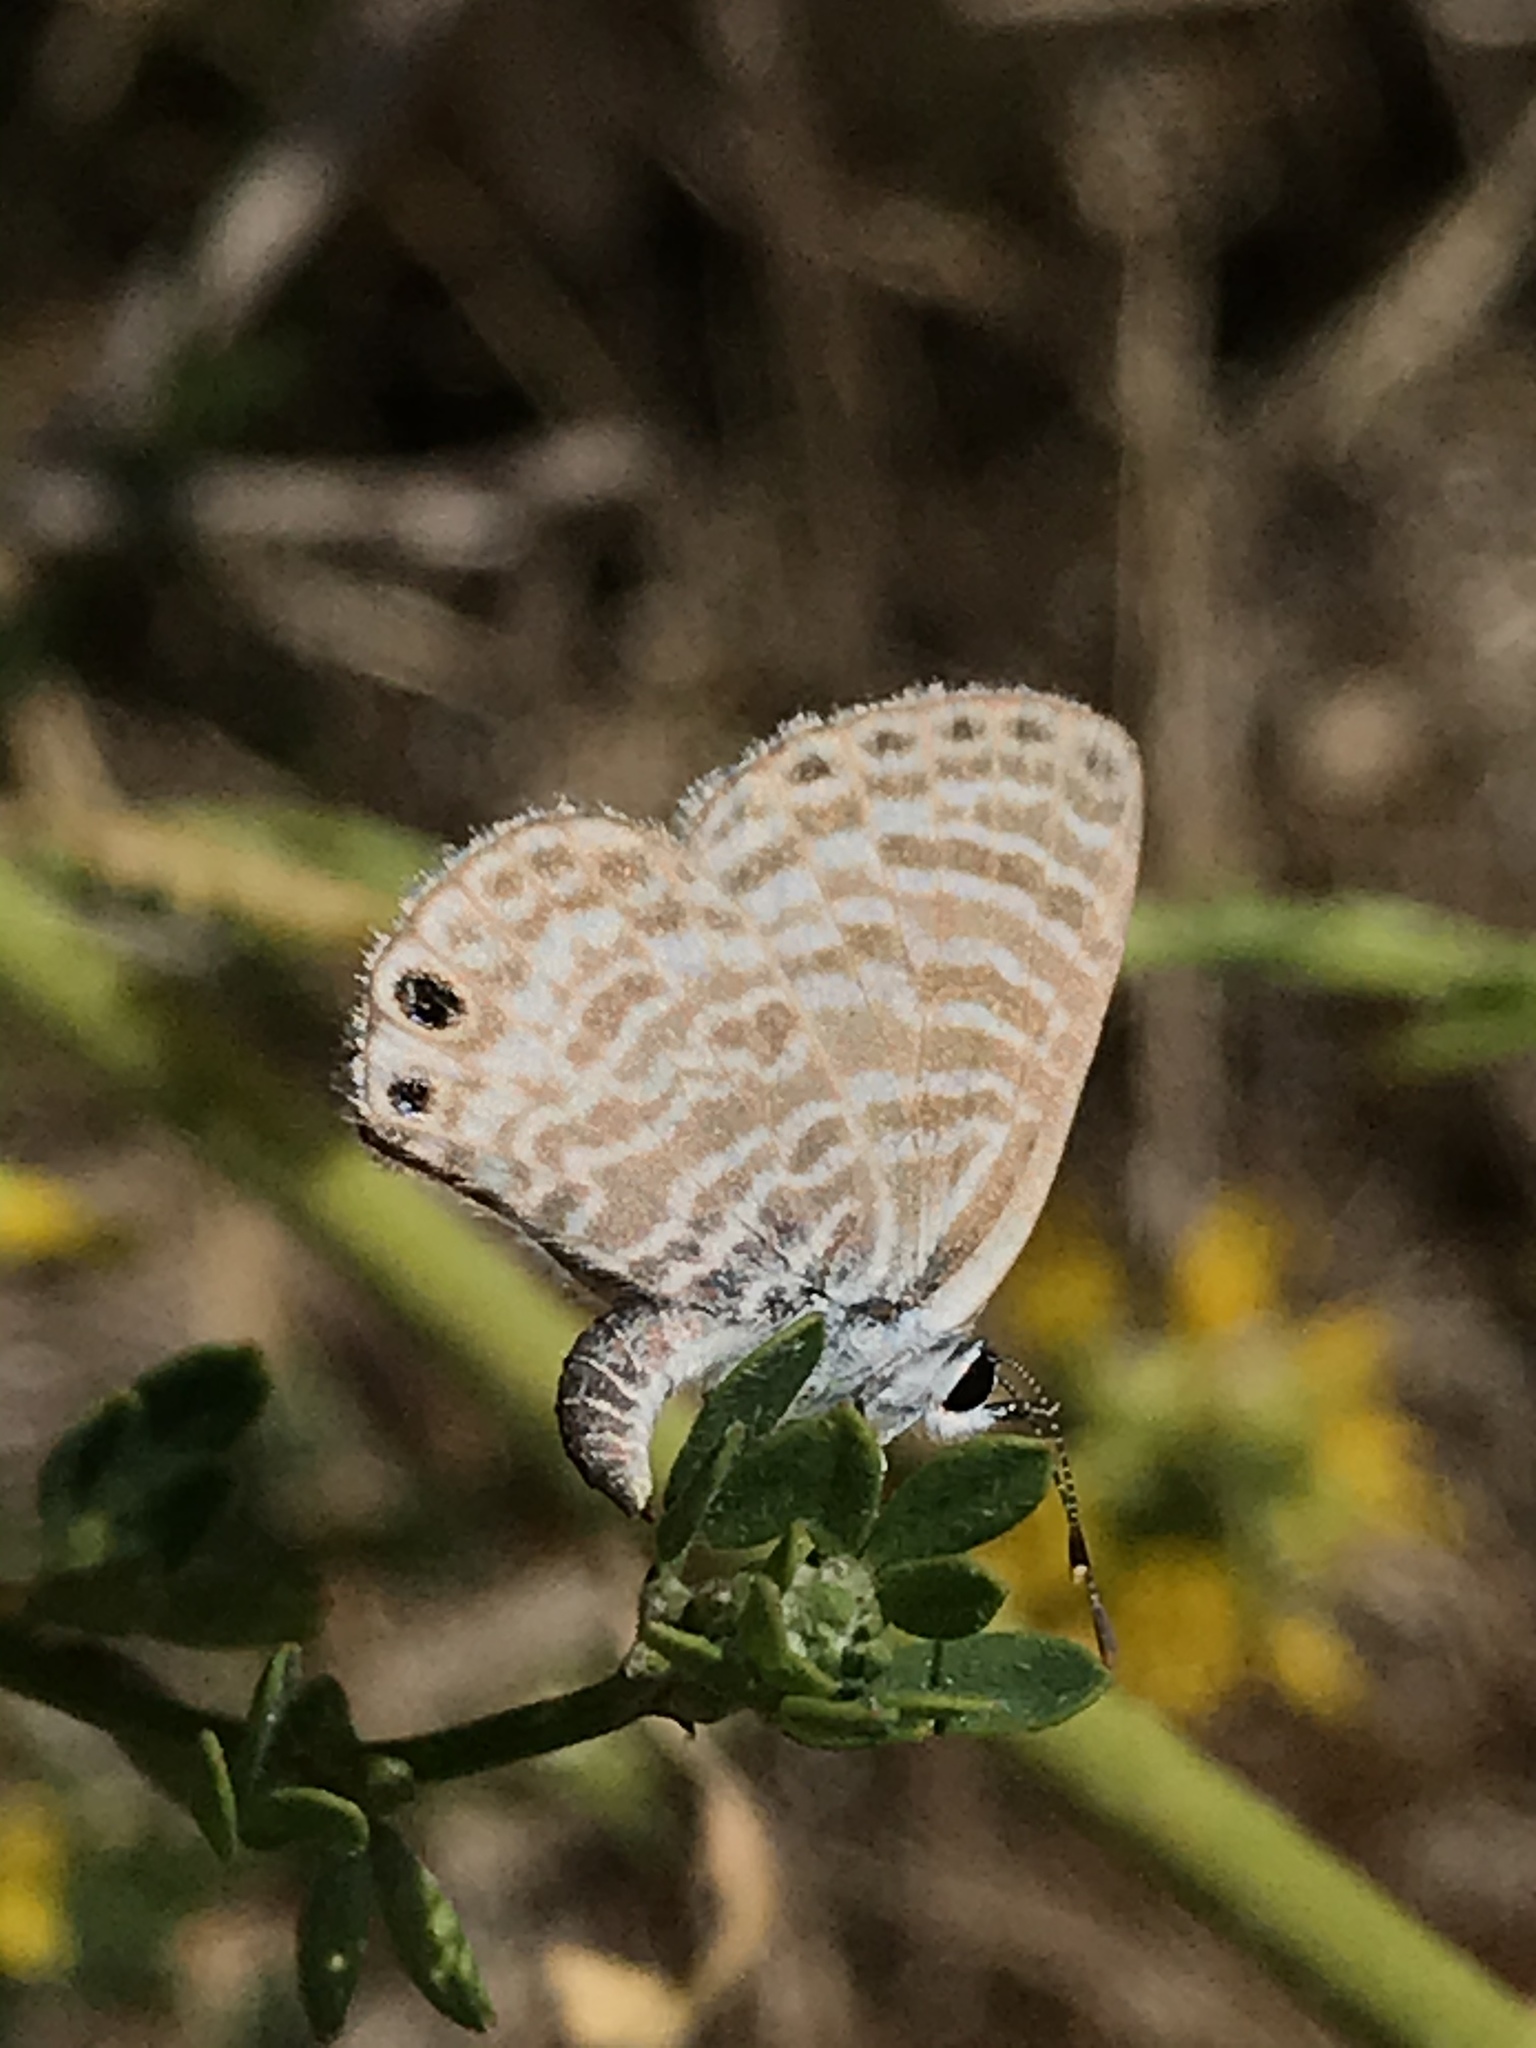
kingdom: Animalia
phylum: Arthropoda
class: Insecta
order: Lepidoptera
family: Lycaenidae
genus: Leptotes
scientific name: Leptotes marina
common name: Marine blue
